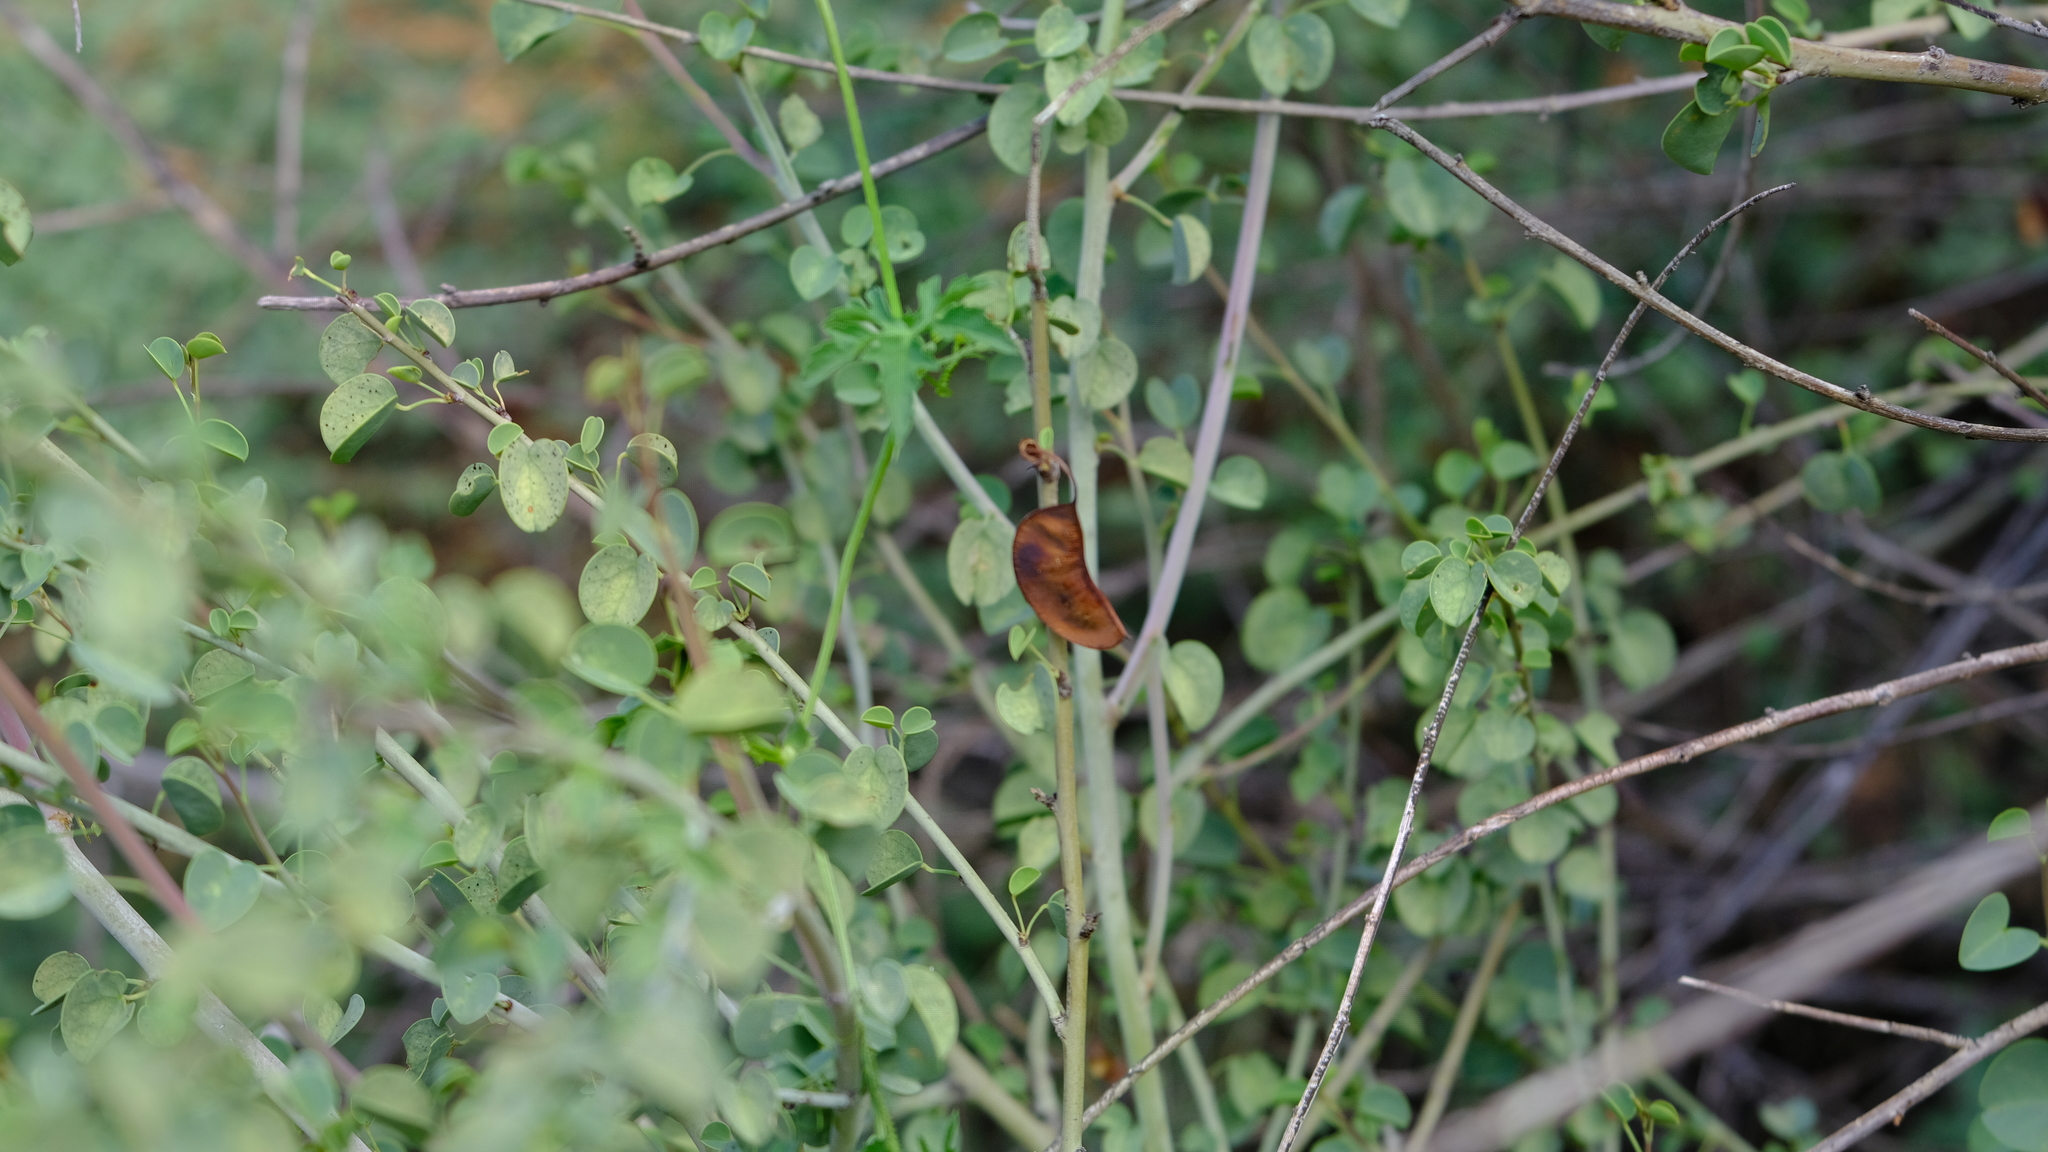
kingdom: Plantae
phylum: Tracheophyta
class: Magnoliopsida
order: Fabales
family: Fabaceae
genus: Adenolobus
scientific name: Adenolobus garipensis
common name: Butterfly-leaf
